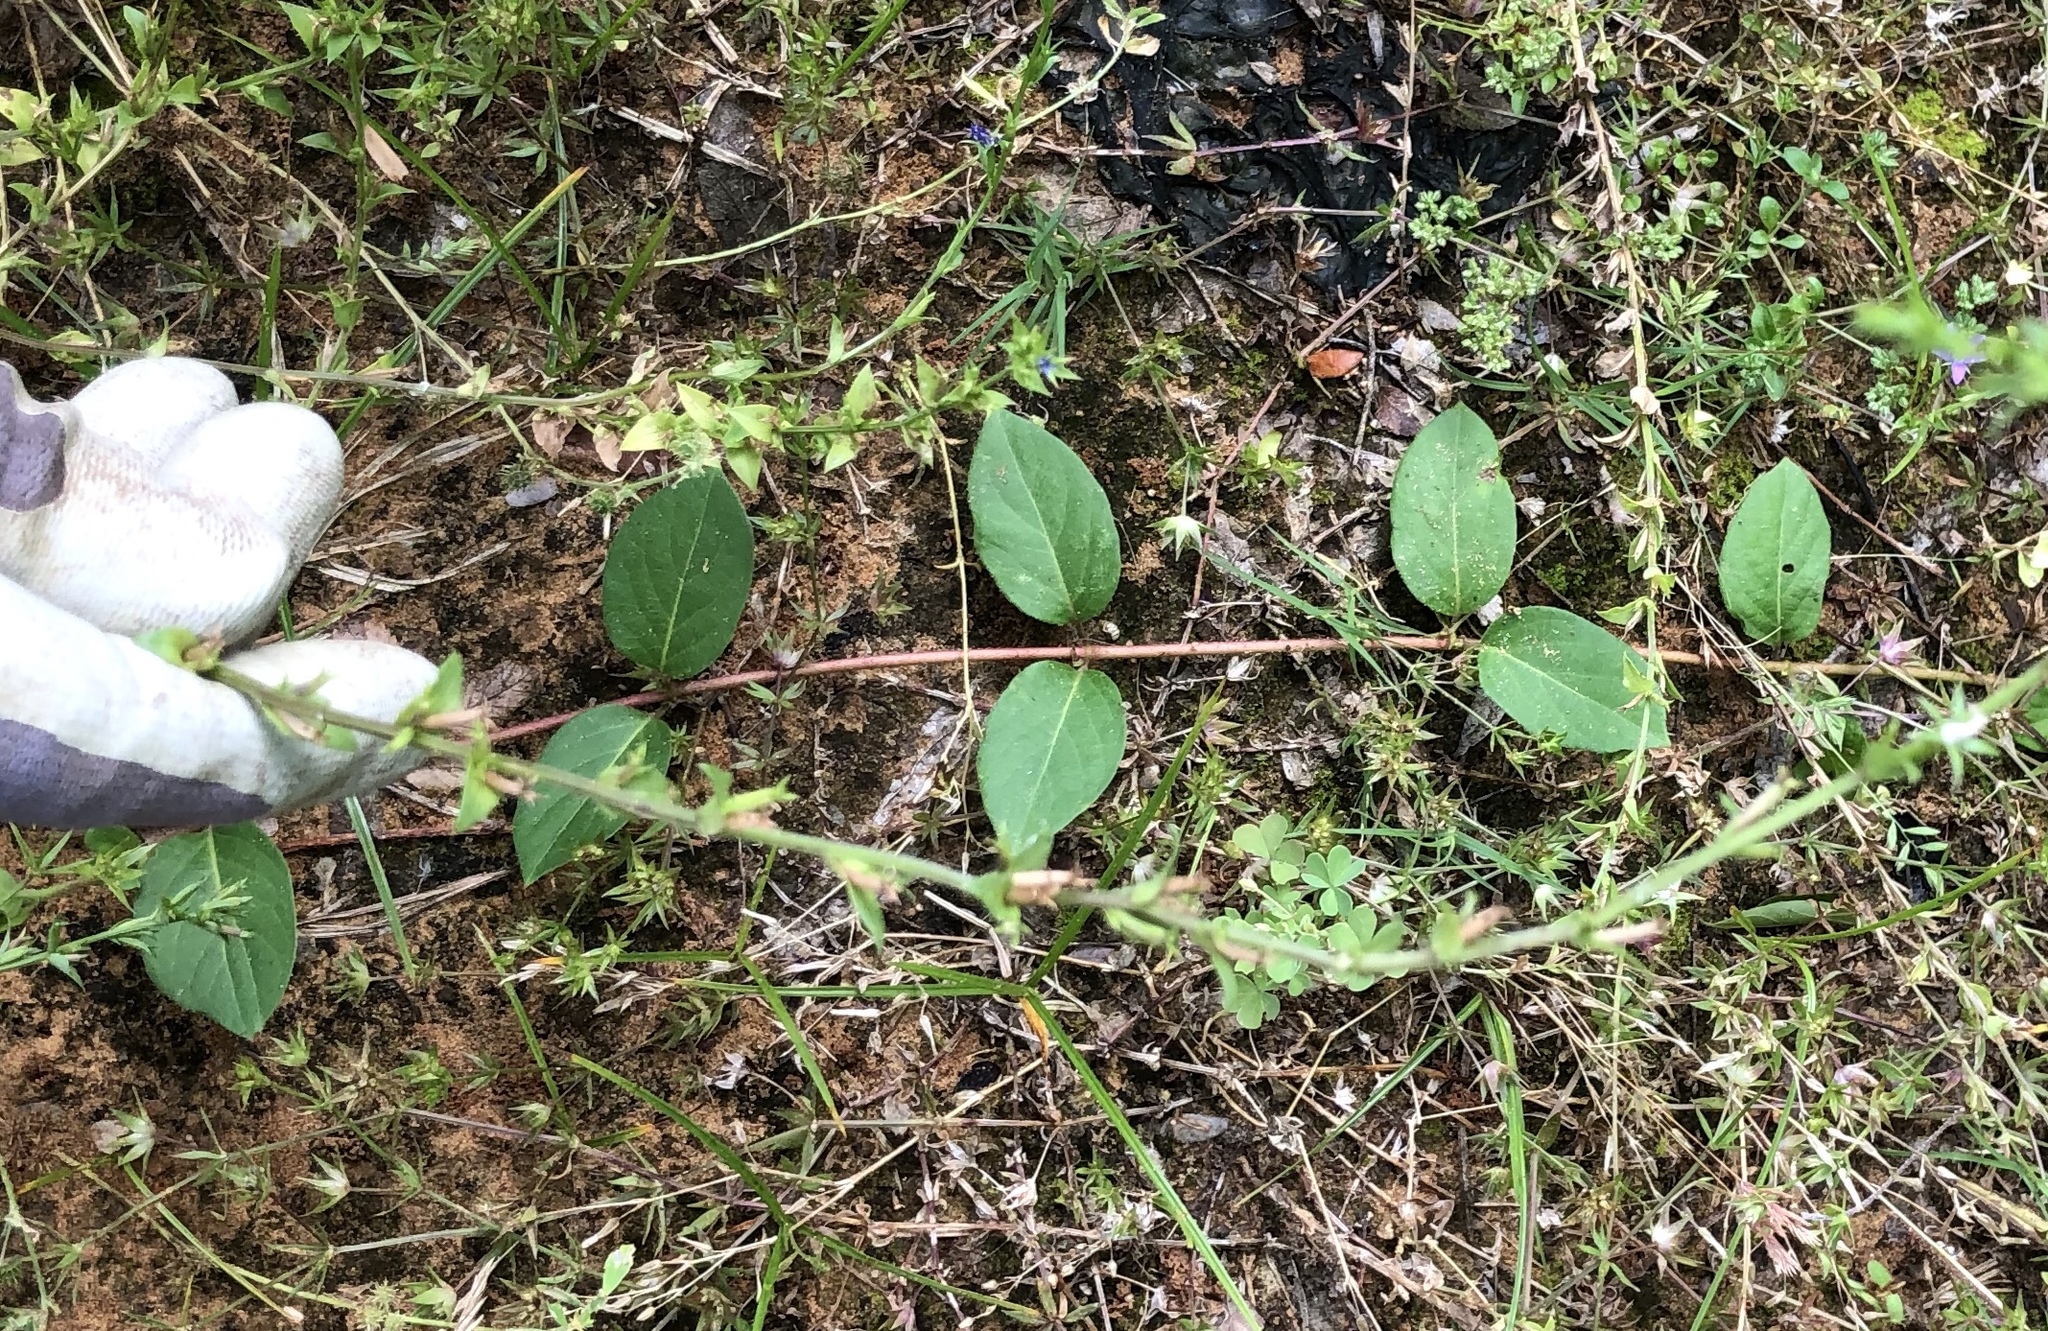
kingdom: Plantae
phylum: Tracheophyta
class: Magnoliopsida
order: Dipsacales
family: Caprifoliaceae
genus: Lonicera
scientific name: Lonicera sempervirens
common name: Coral honeysuckle
